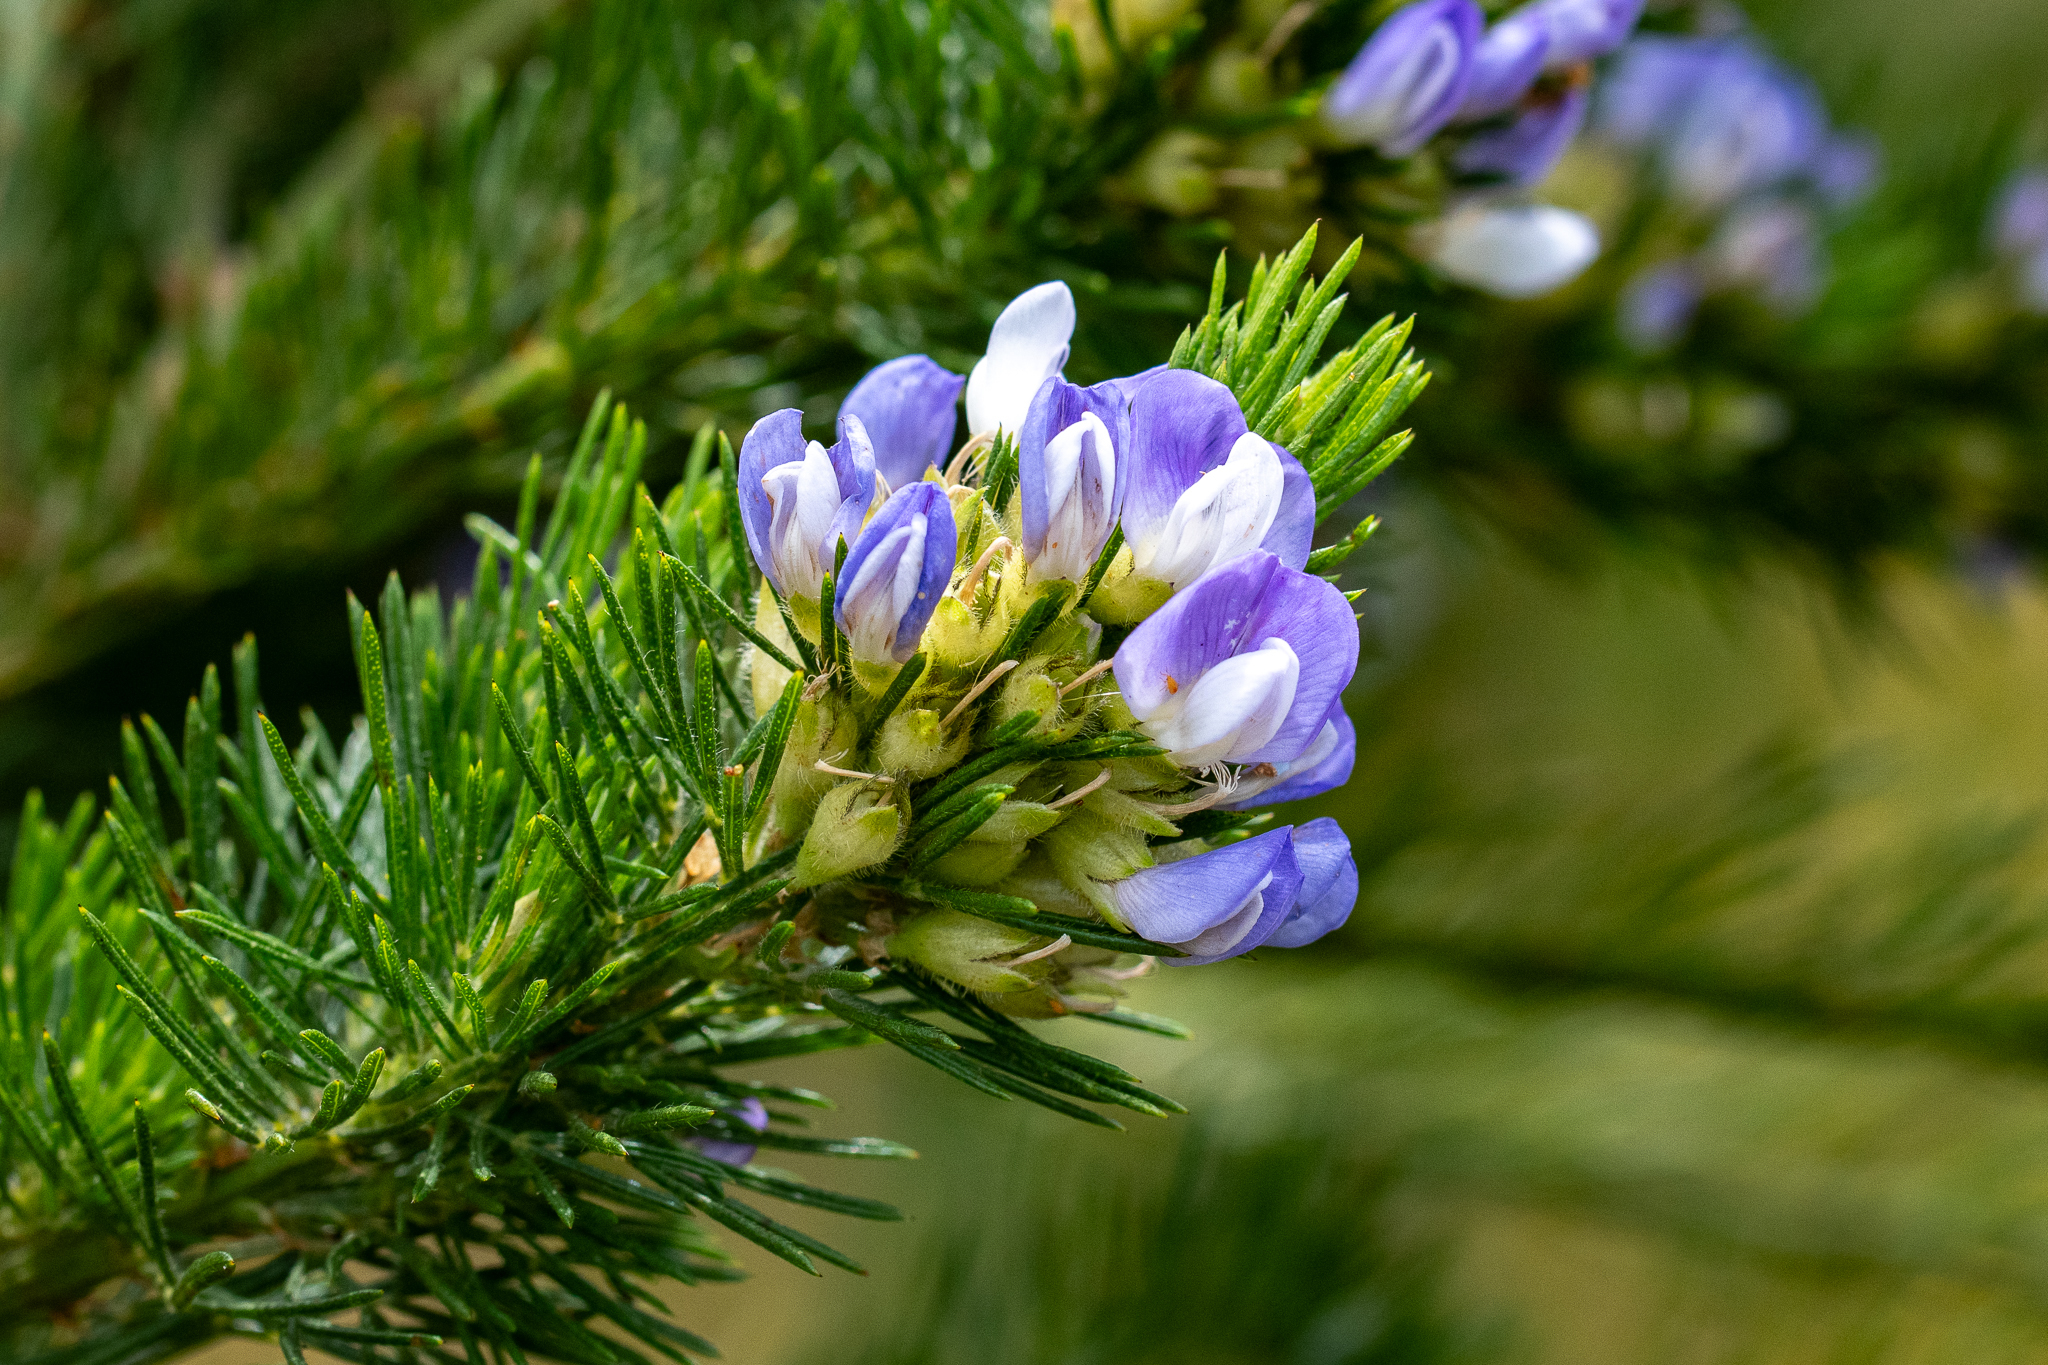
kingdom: Plantae
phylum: Tracheophyta
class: Magnoliopsida
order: Fabales
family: Fabaceae
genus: Psoralea
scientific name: Psoralea pinnata
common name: African scurfpea
